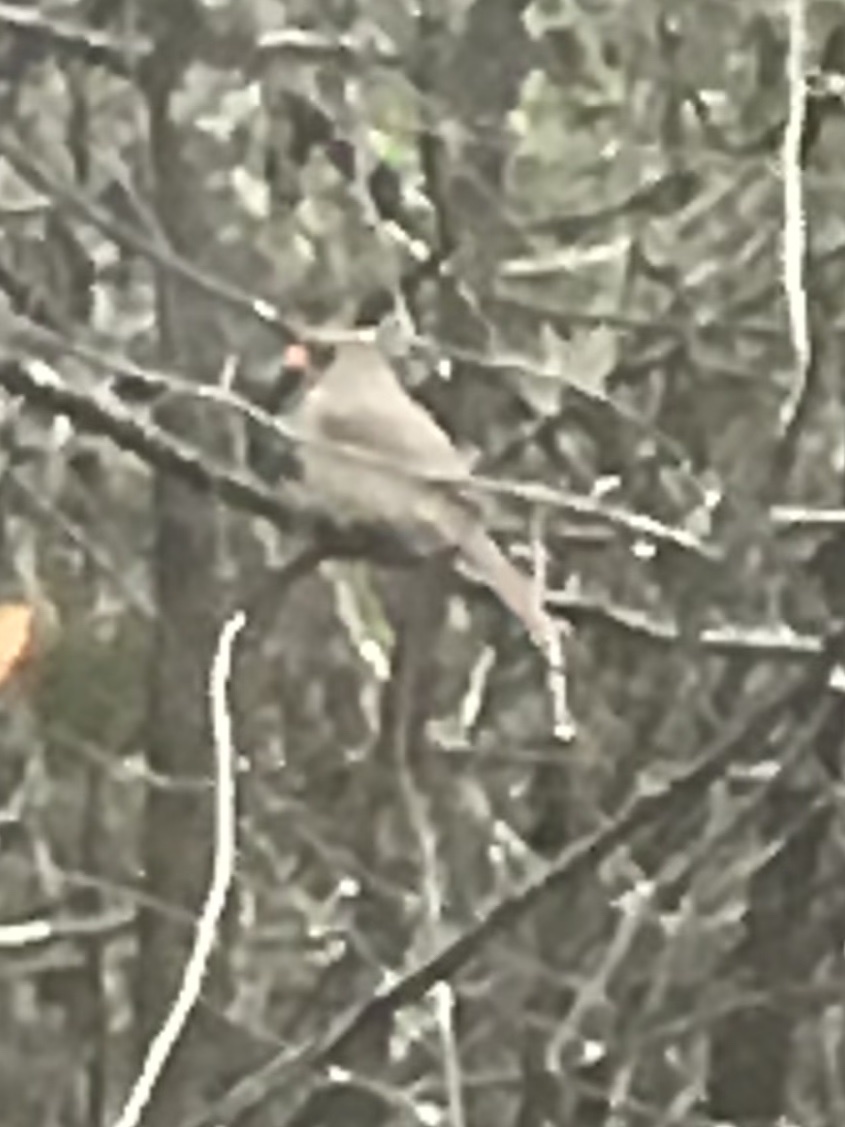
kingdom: Animalia
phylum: Chordata
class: Aves
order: Passeriformes
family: Cardinalidae
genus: Cardinalis
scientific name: Cardinalis cardinalis
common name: Northern cardinal
